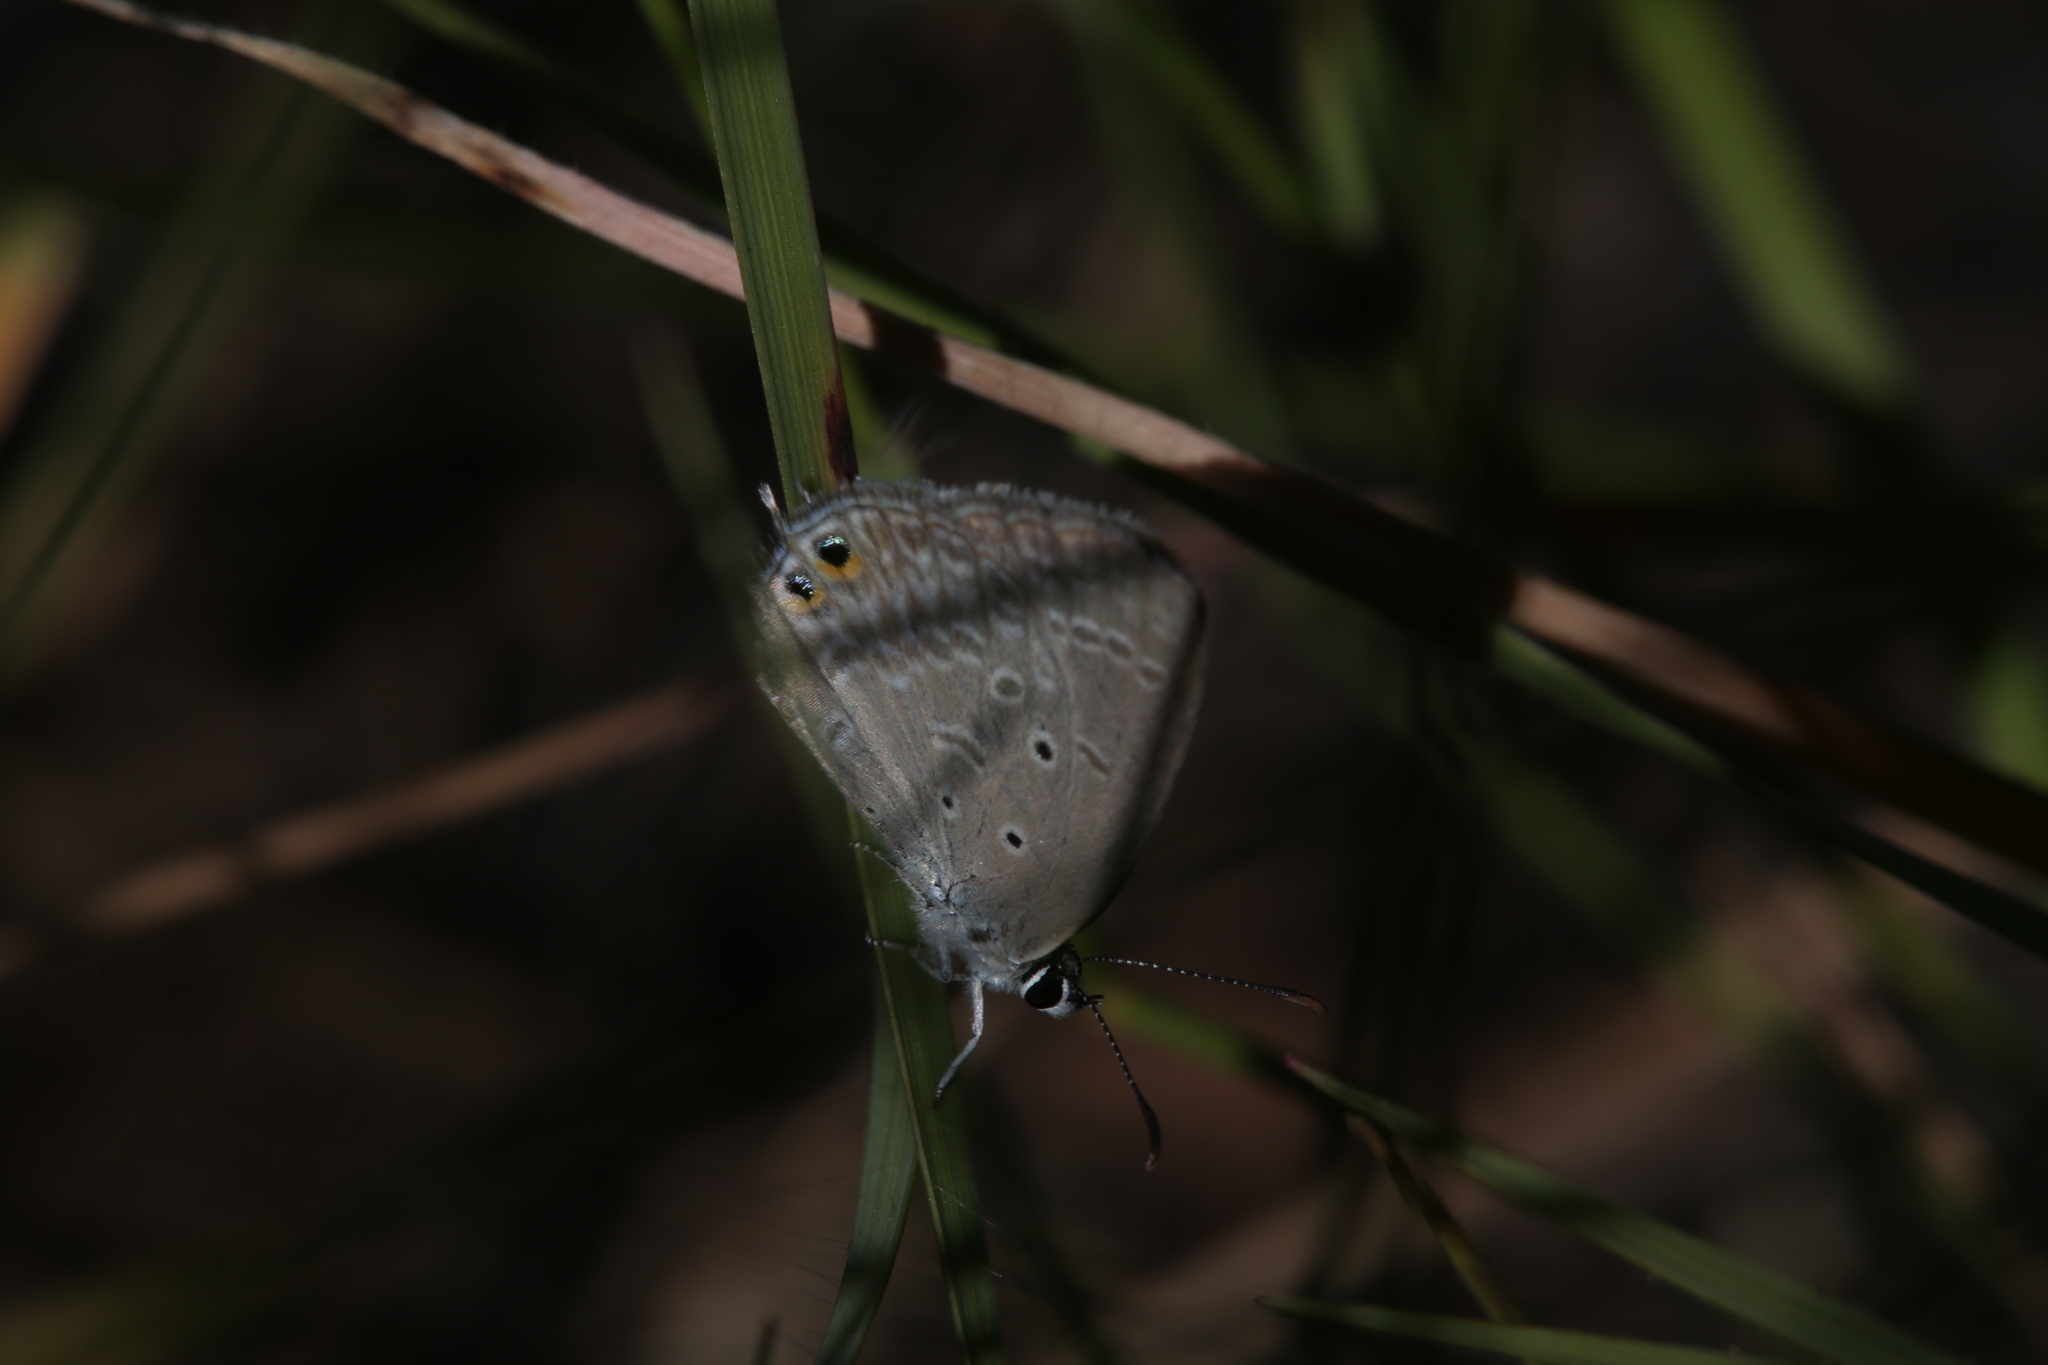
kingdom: Animalia
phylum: Arthropoda
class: Insecta
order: Lepidoptera
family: Lycaenidae
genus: Euchrysops
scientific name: Euchrysops cnejus
